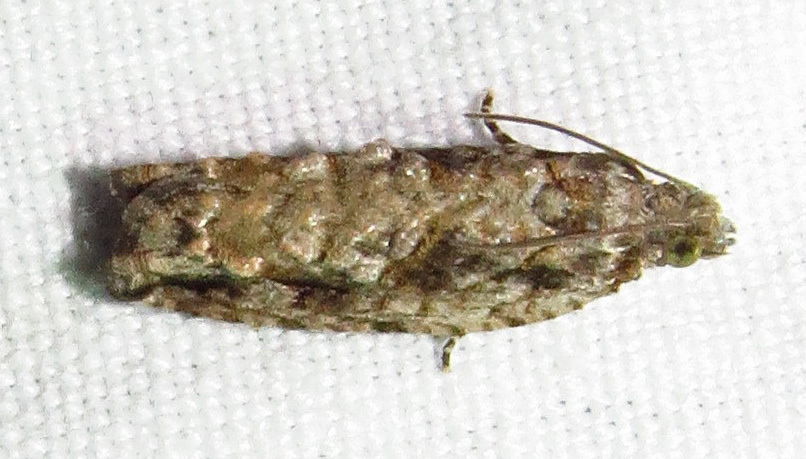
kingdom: Animalia
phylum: Arthropoda
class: Insecta
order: Lepidoptera
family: Tortricidae
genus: Proteoteras
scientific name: Proteoteras aesculana
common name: Maple twig borer moth
